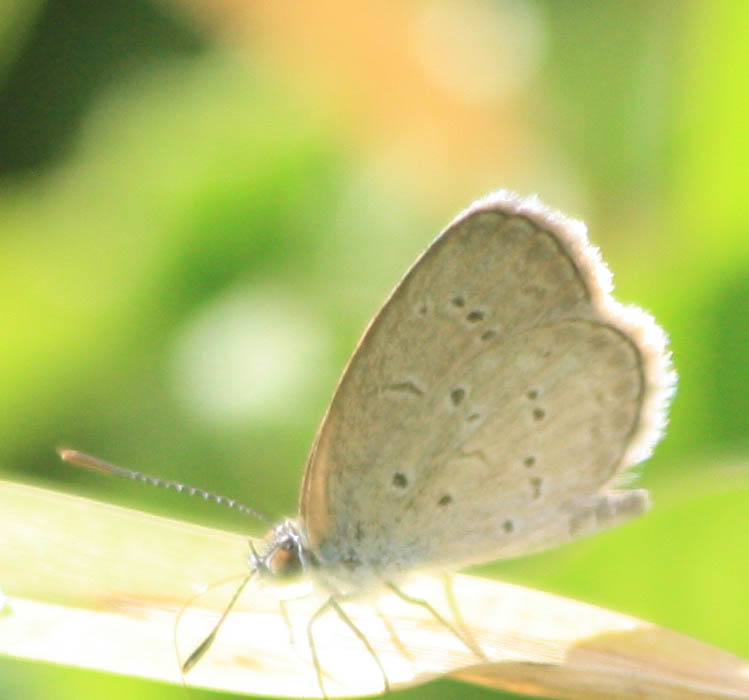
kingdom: Animalia
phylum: Arthropoda
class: Insecta
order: Lepidoptera
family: Lycaenidae
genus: Zizina
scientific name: Zizina otis
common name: Lesser grass blue
